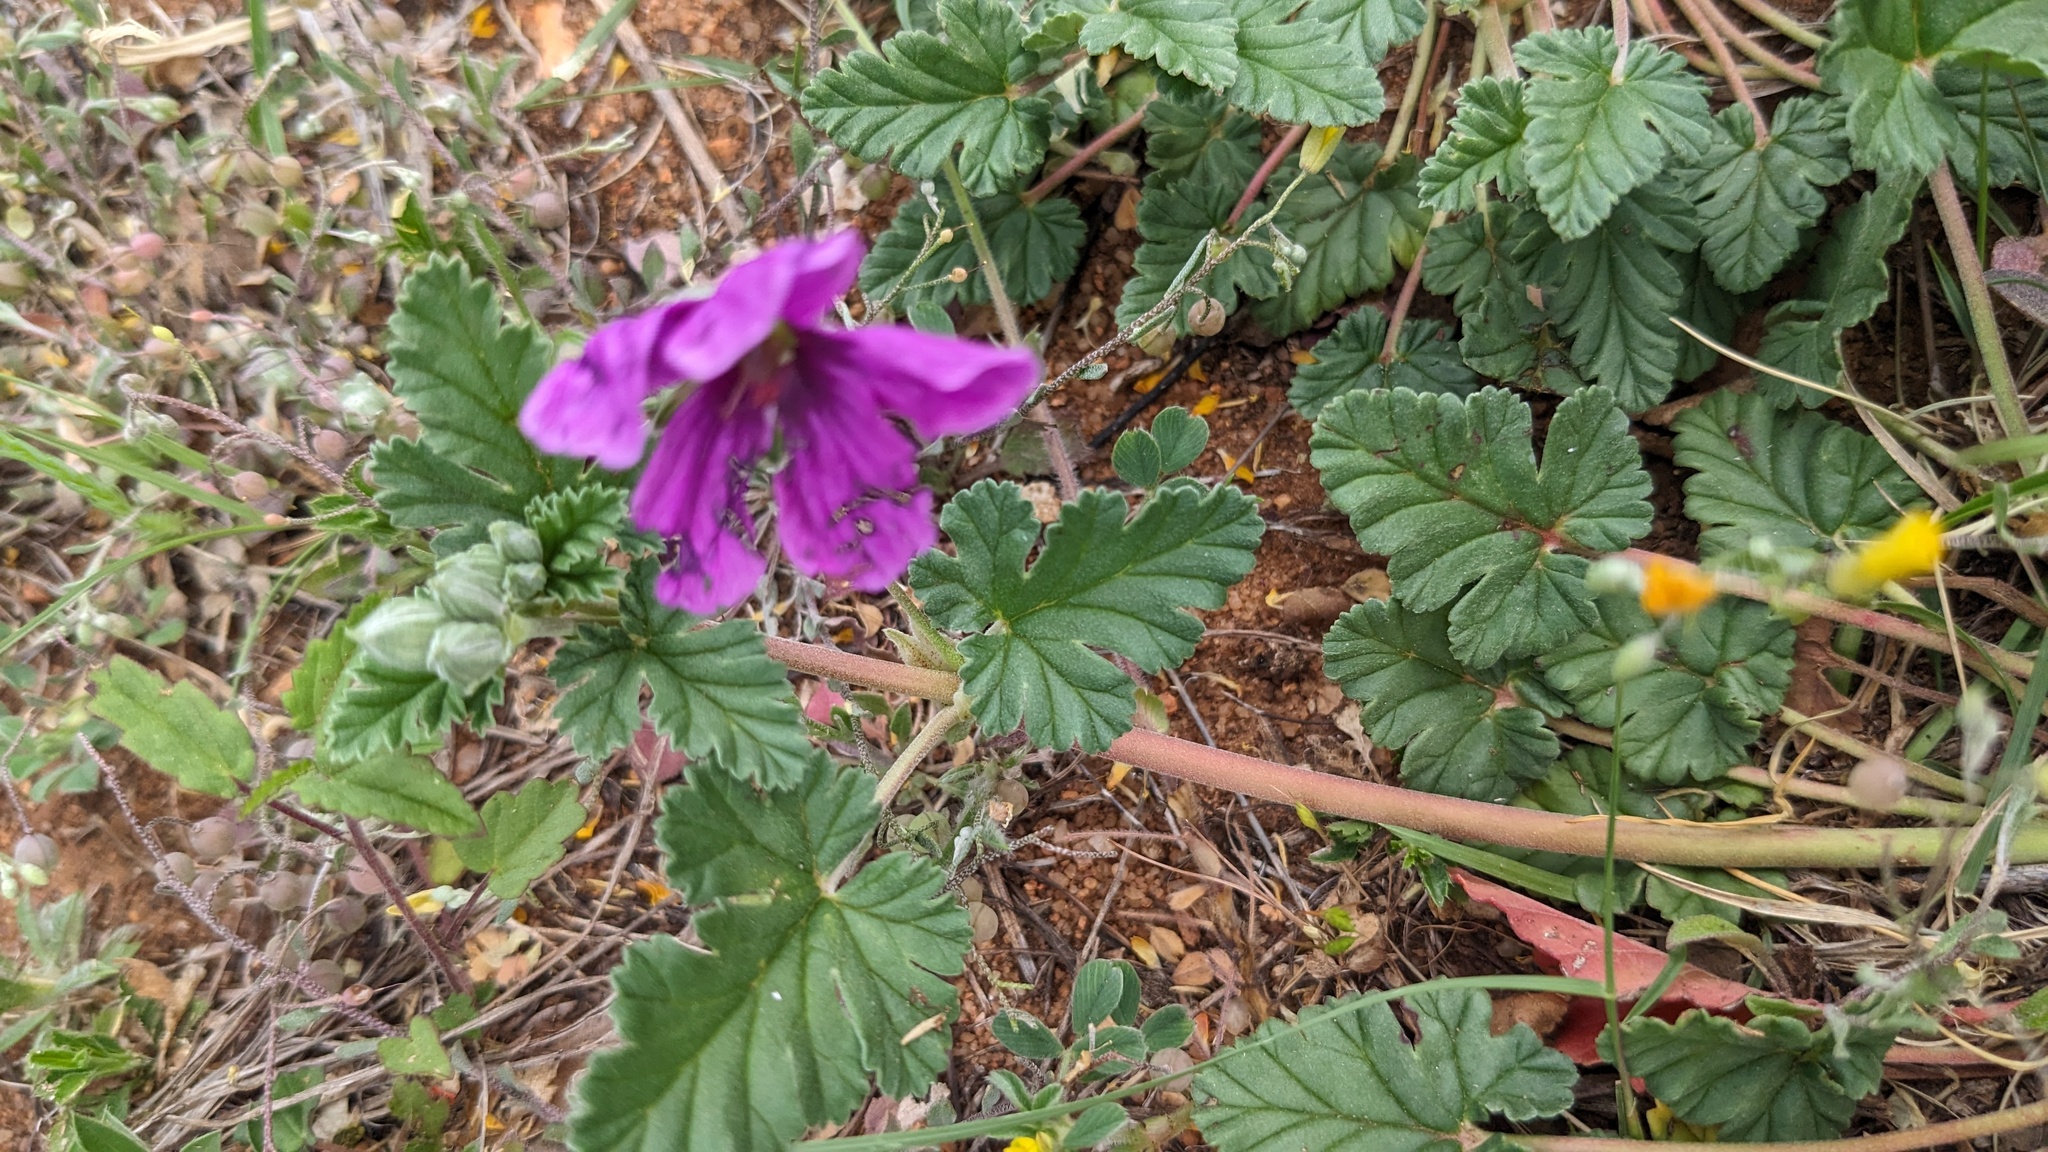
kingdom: Plantae
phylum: Tracheophyta
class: Magnoliopsida
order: Geraniales
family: Geraniaceae
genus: Erodium
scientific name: Erodium texanum
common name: Texas stork's-bill
